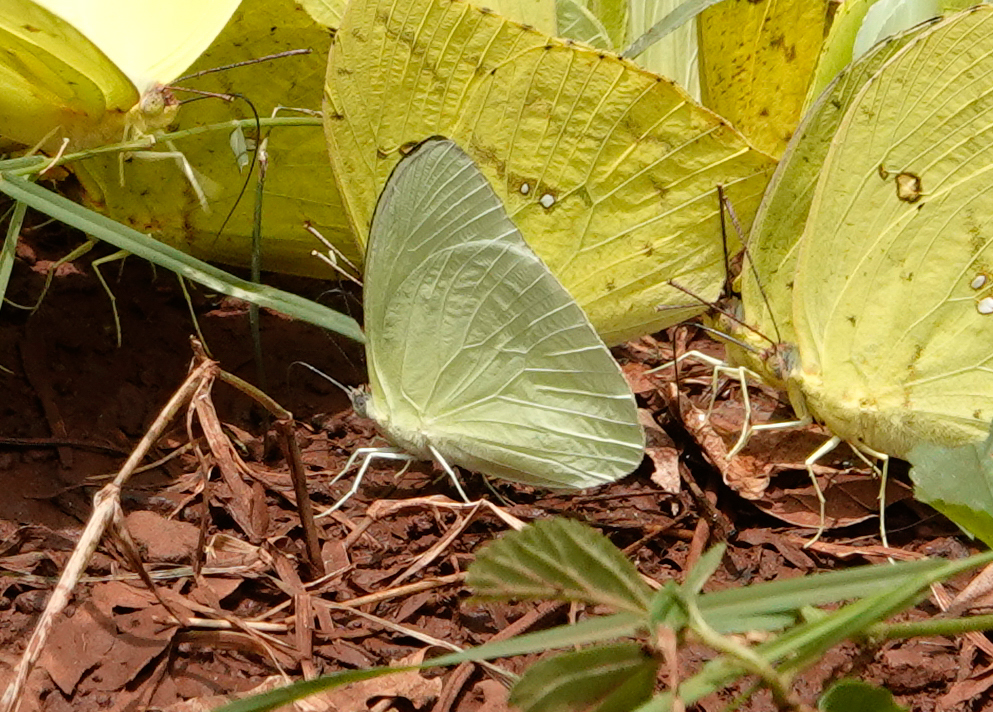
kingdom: Animalia
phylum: Arthropoda
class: Insecta
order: Lepidoptera
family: Pieridae
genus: Aphrissa
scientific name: Aphrissa statira
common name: Statira sulphur
